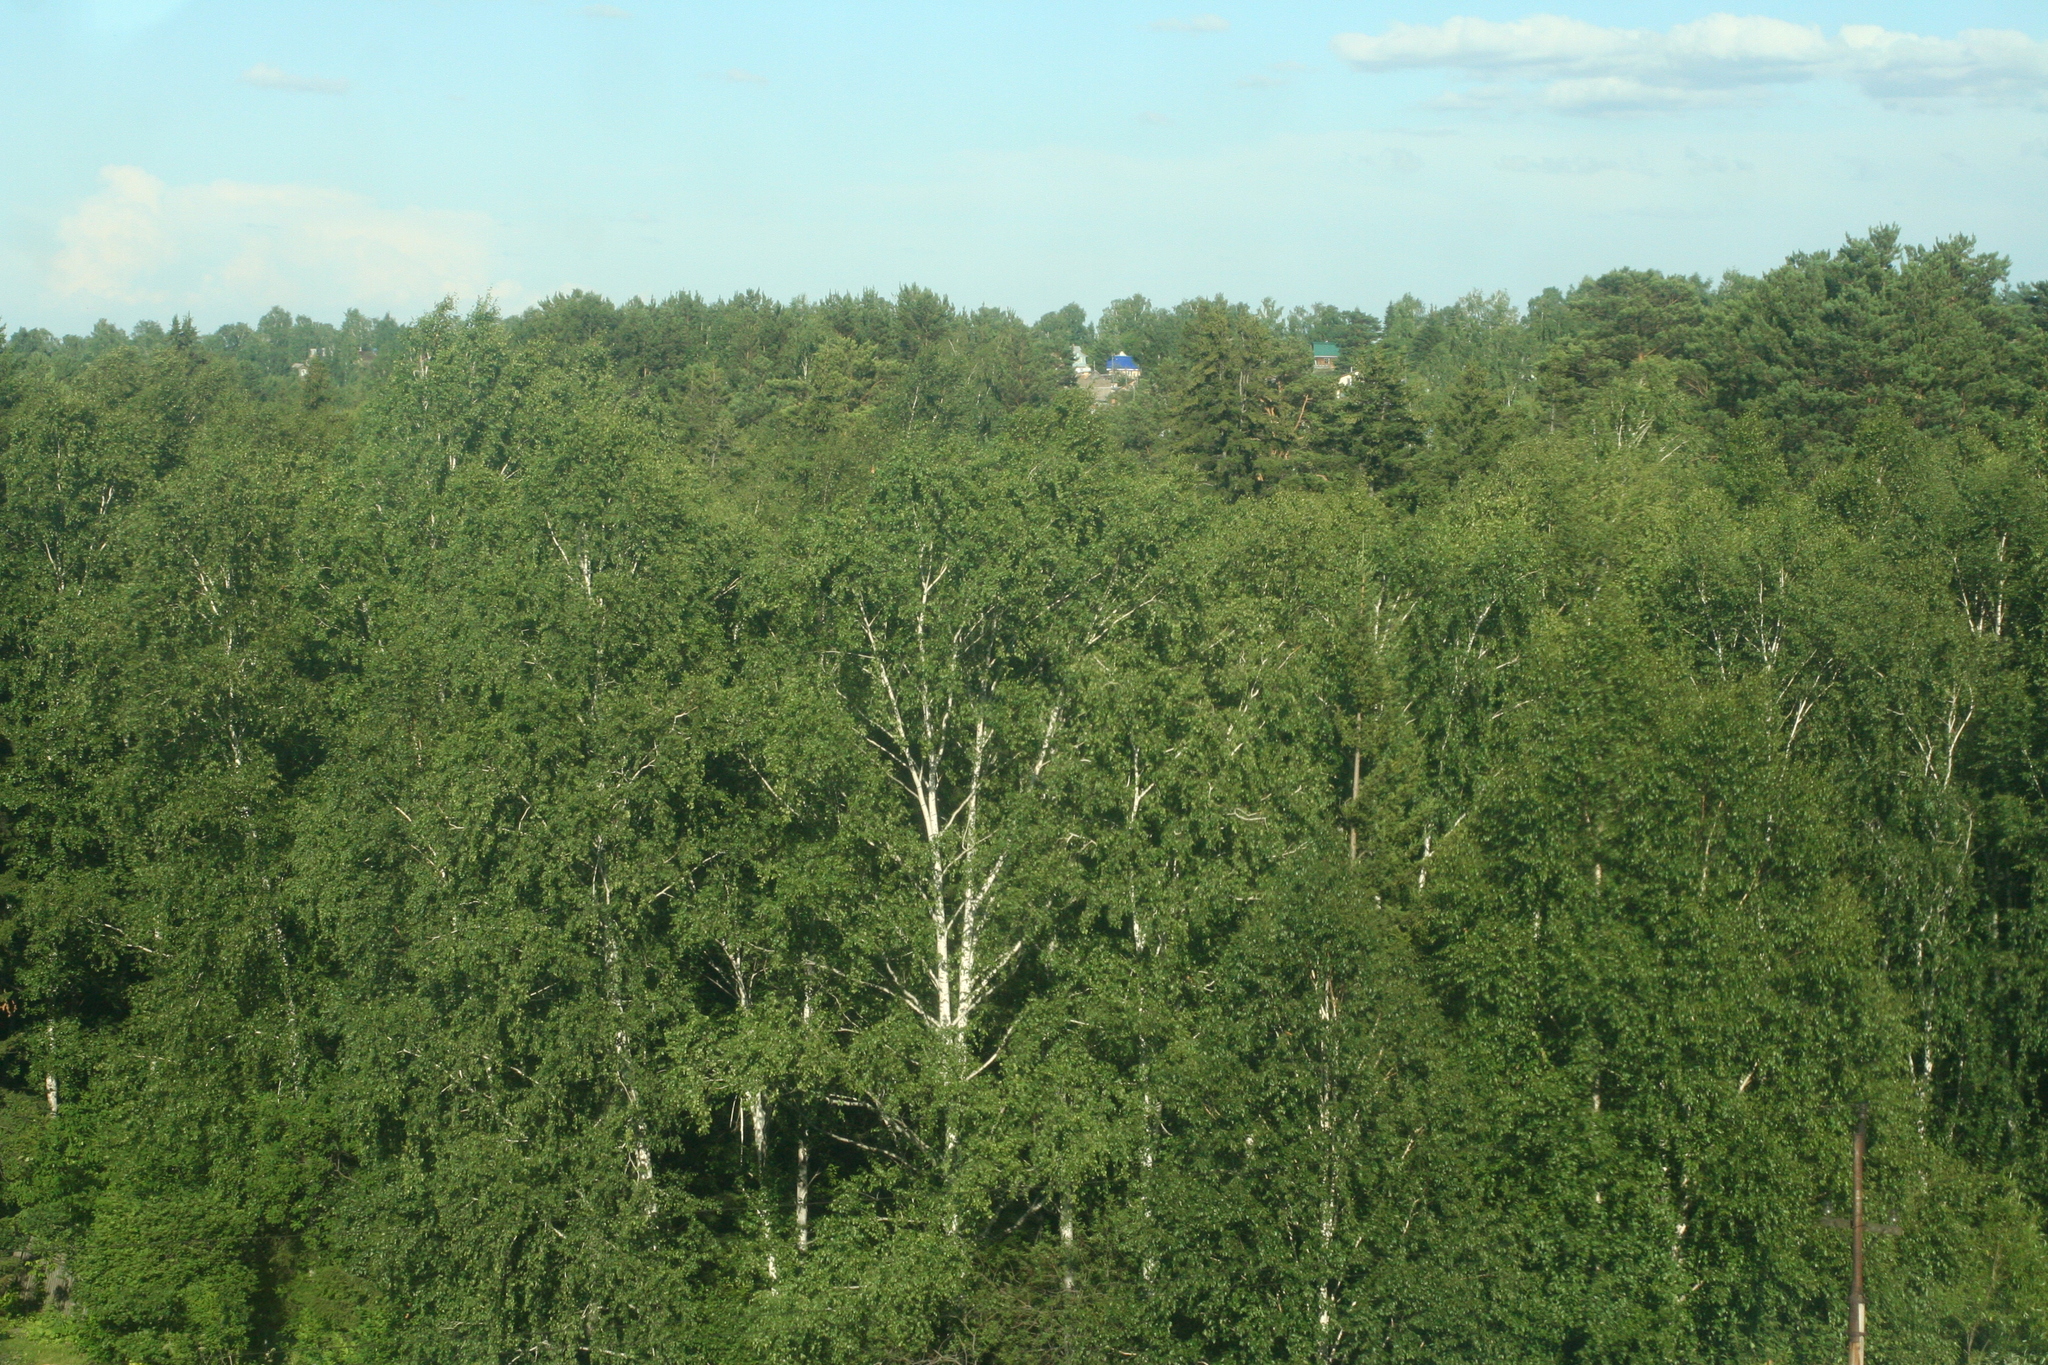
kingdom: Plantae
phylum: Tracheophyta
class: Magnoliopsida
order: Fagales
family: Betulaceae
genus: Betula
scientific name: Betula pendula
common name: Silver birch
